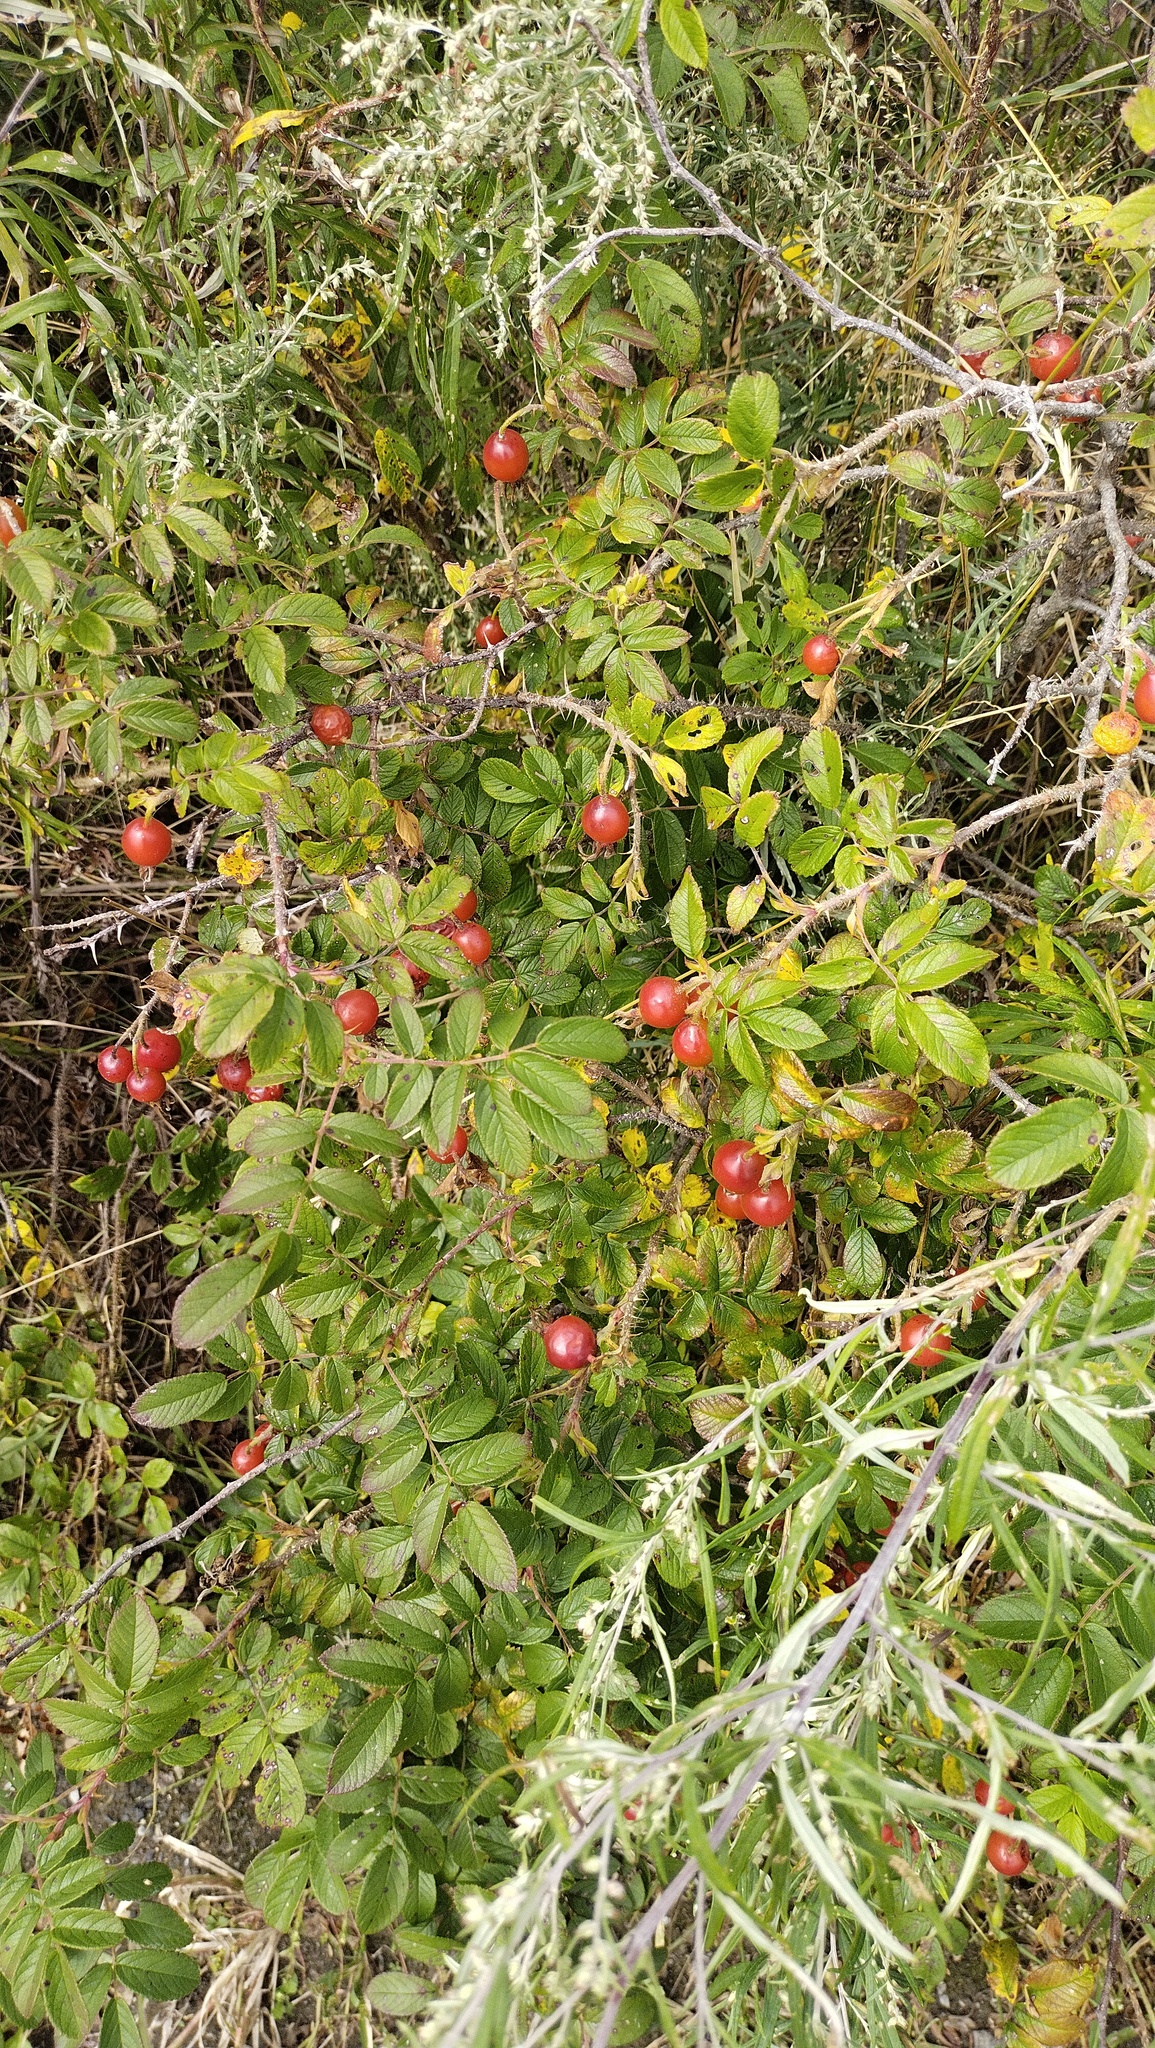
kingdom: Plantae
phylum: Tracheophyta
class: Magnoliopsida
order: Rosales
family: Rosaceae
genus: Rosa
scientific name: Rosa rugosa
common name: Japanese rose
